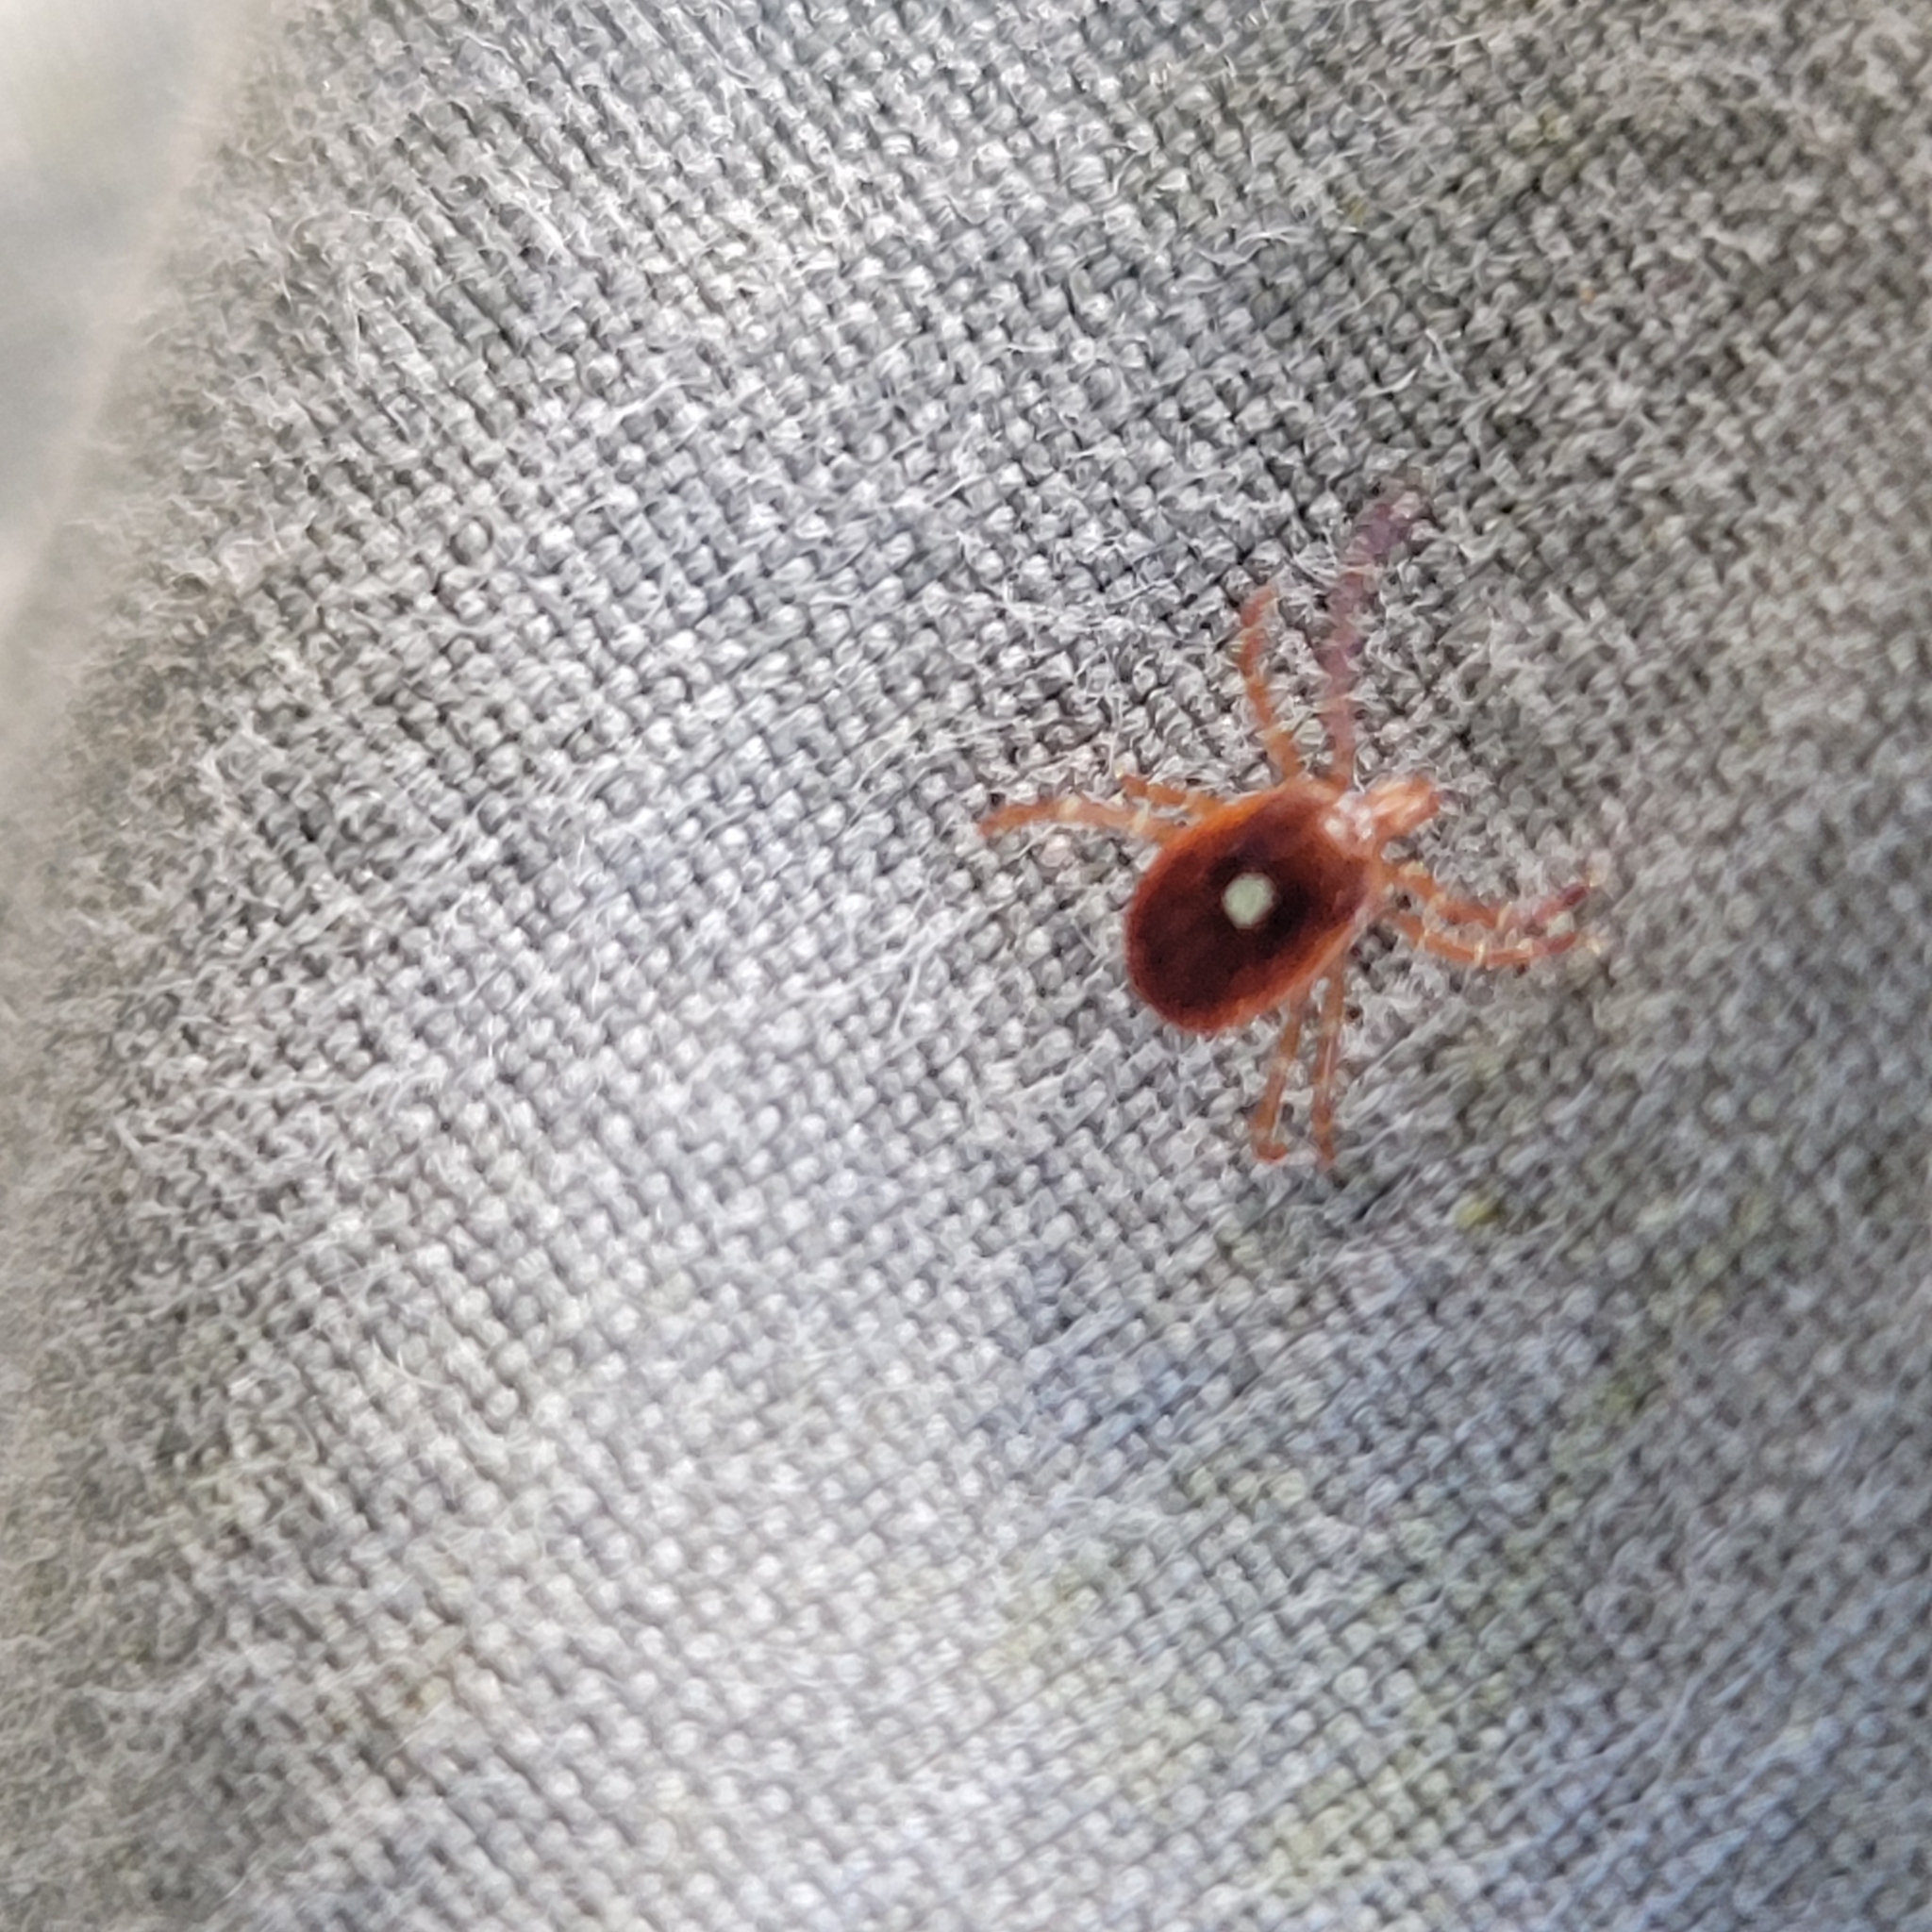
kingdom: Animalia
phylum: Arthropoda
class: Arachnida
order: Ixodida
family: Ixodidae
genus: Amblyomma
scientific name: Amblyomma americanum
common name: Lone star tick
